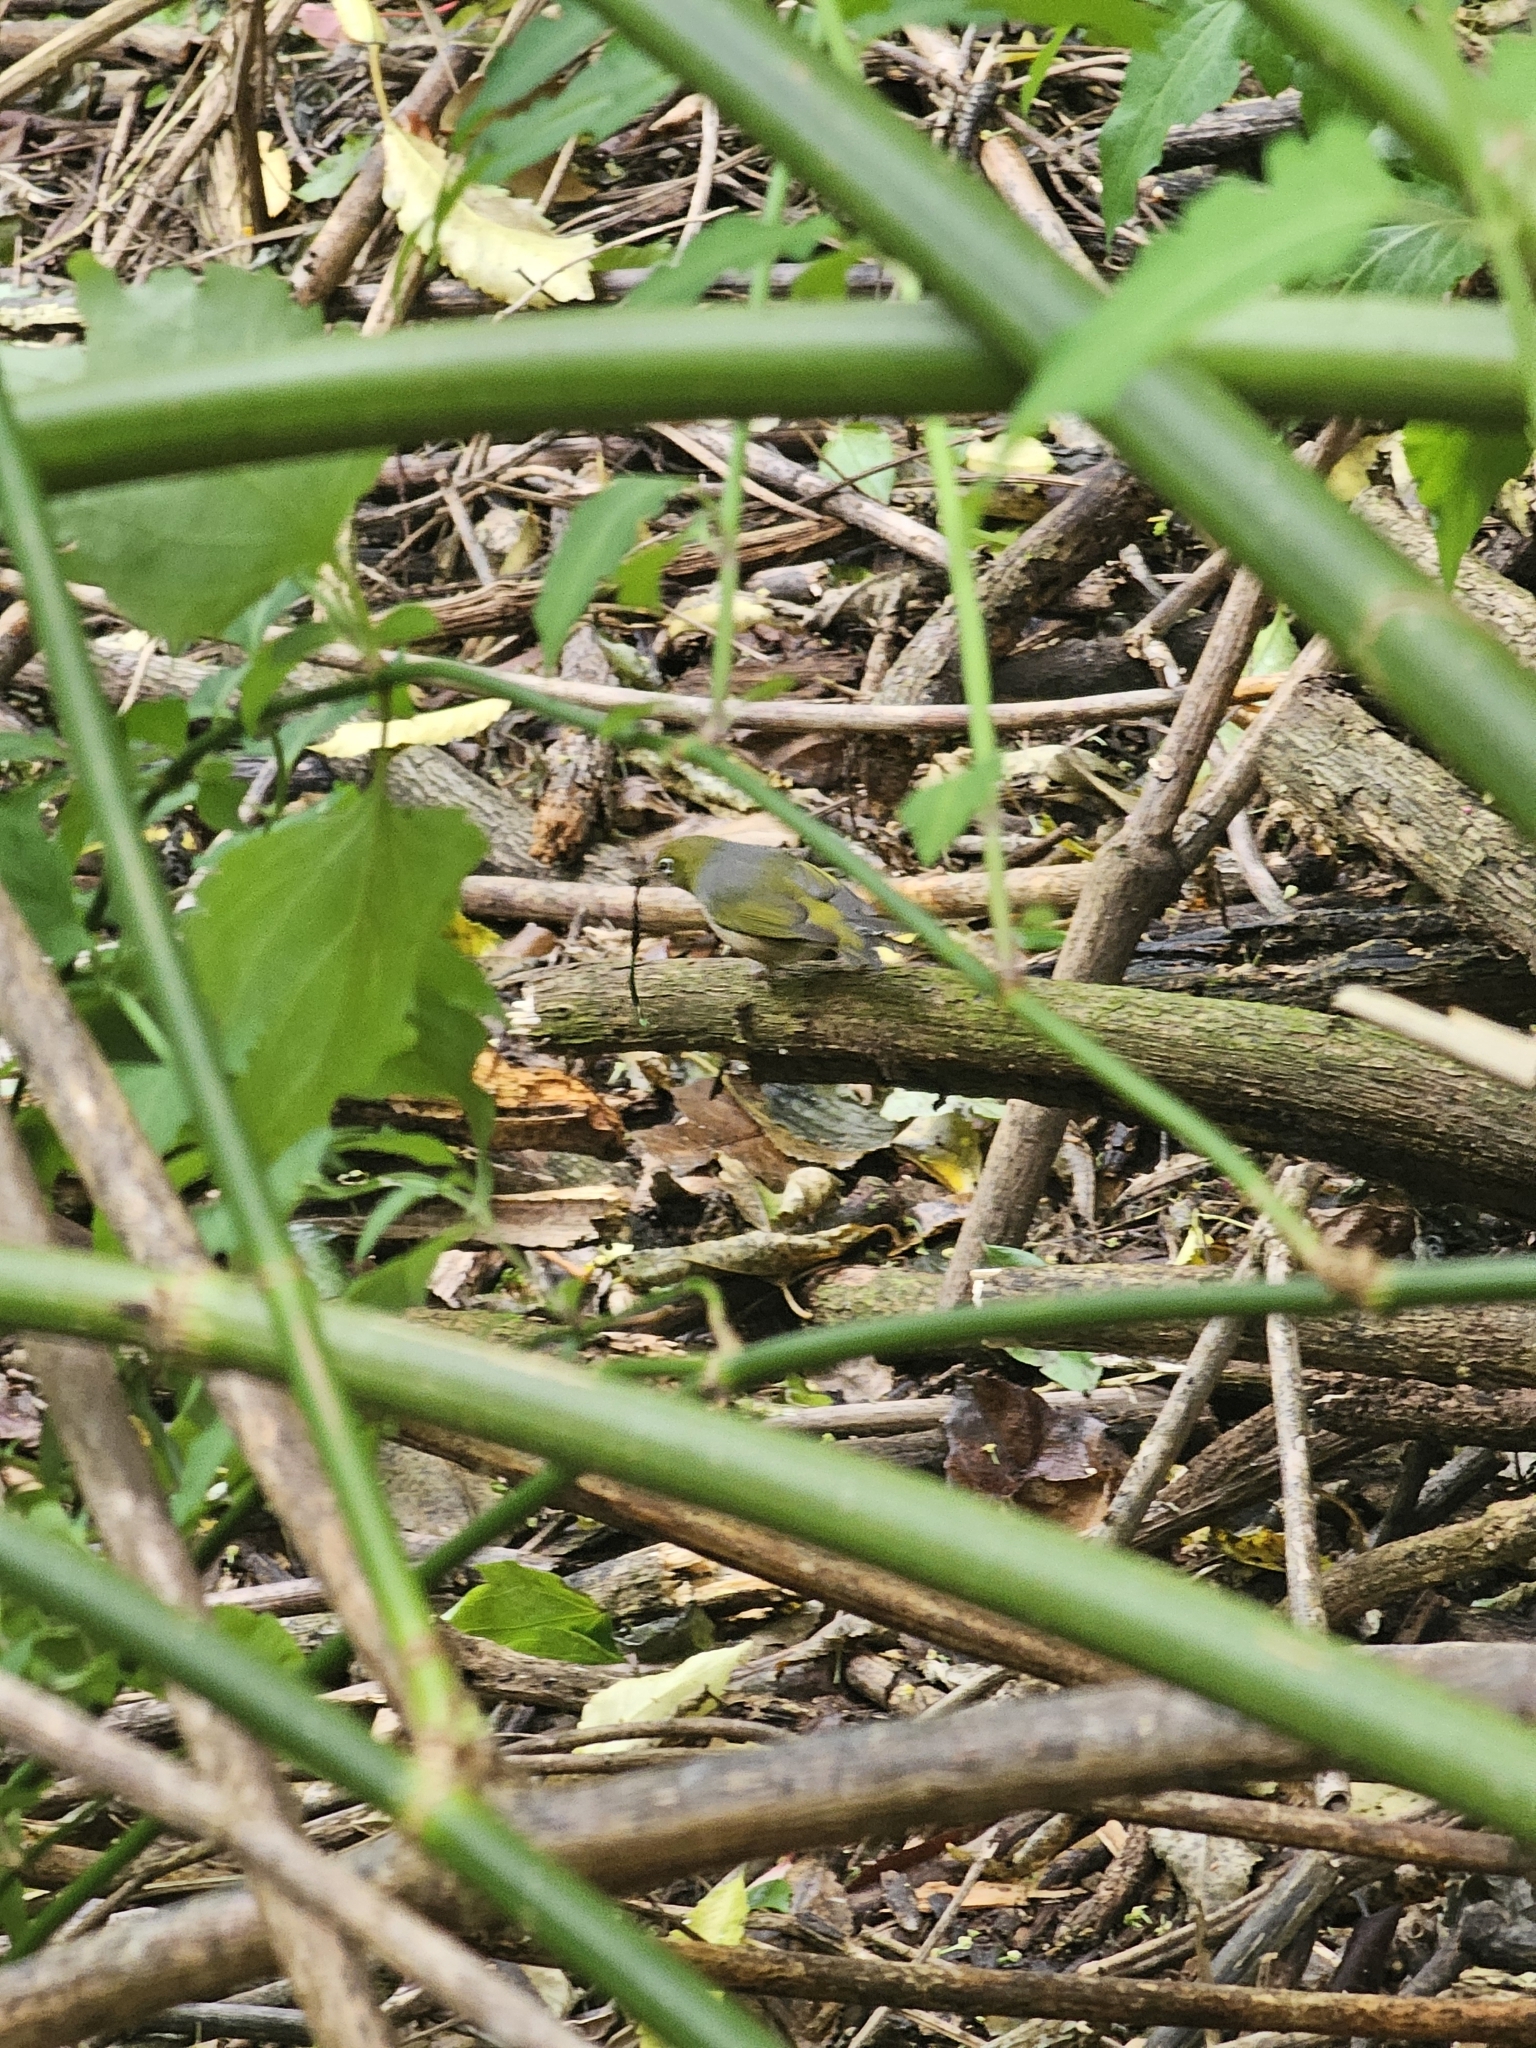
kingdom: Animalia
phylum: Chordata
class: Aves
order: Passeriformes
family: Zosteropidae
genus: Zosterops
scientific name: Zosterops lateralis
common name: Silvereye
